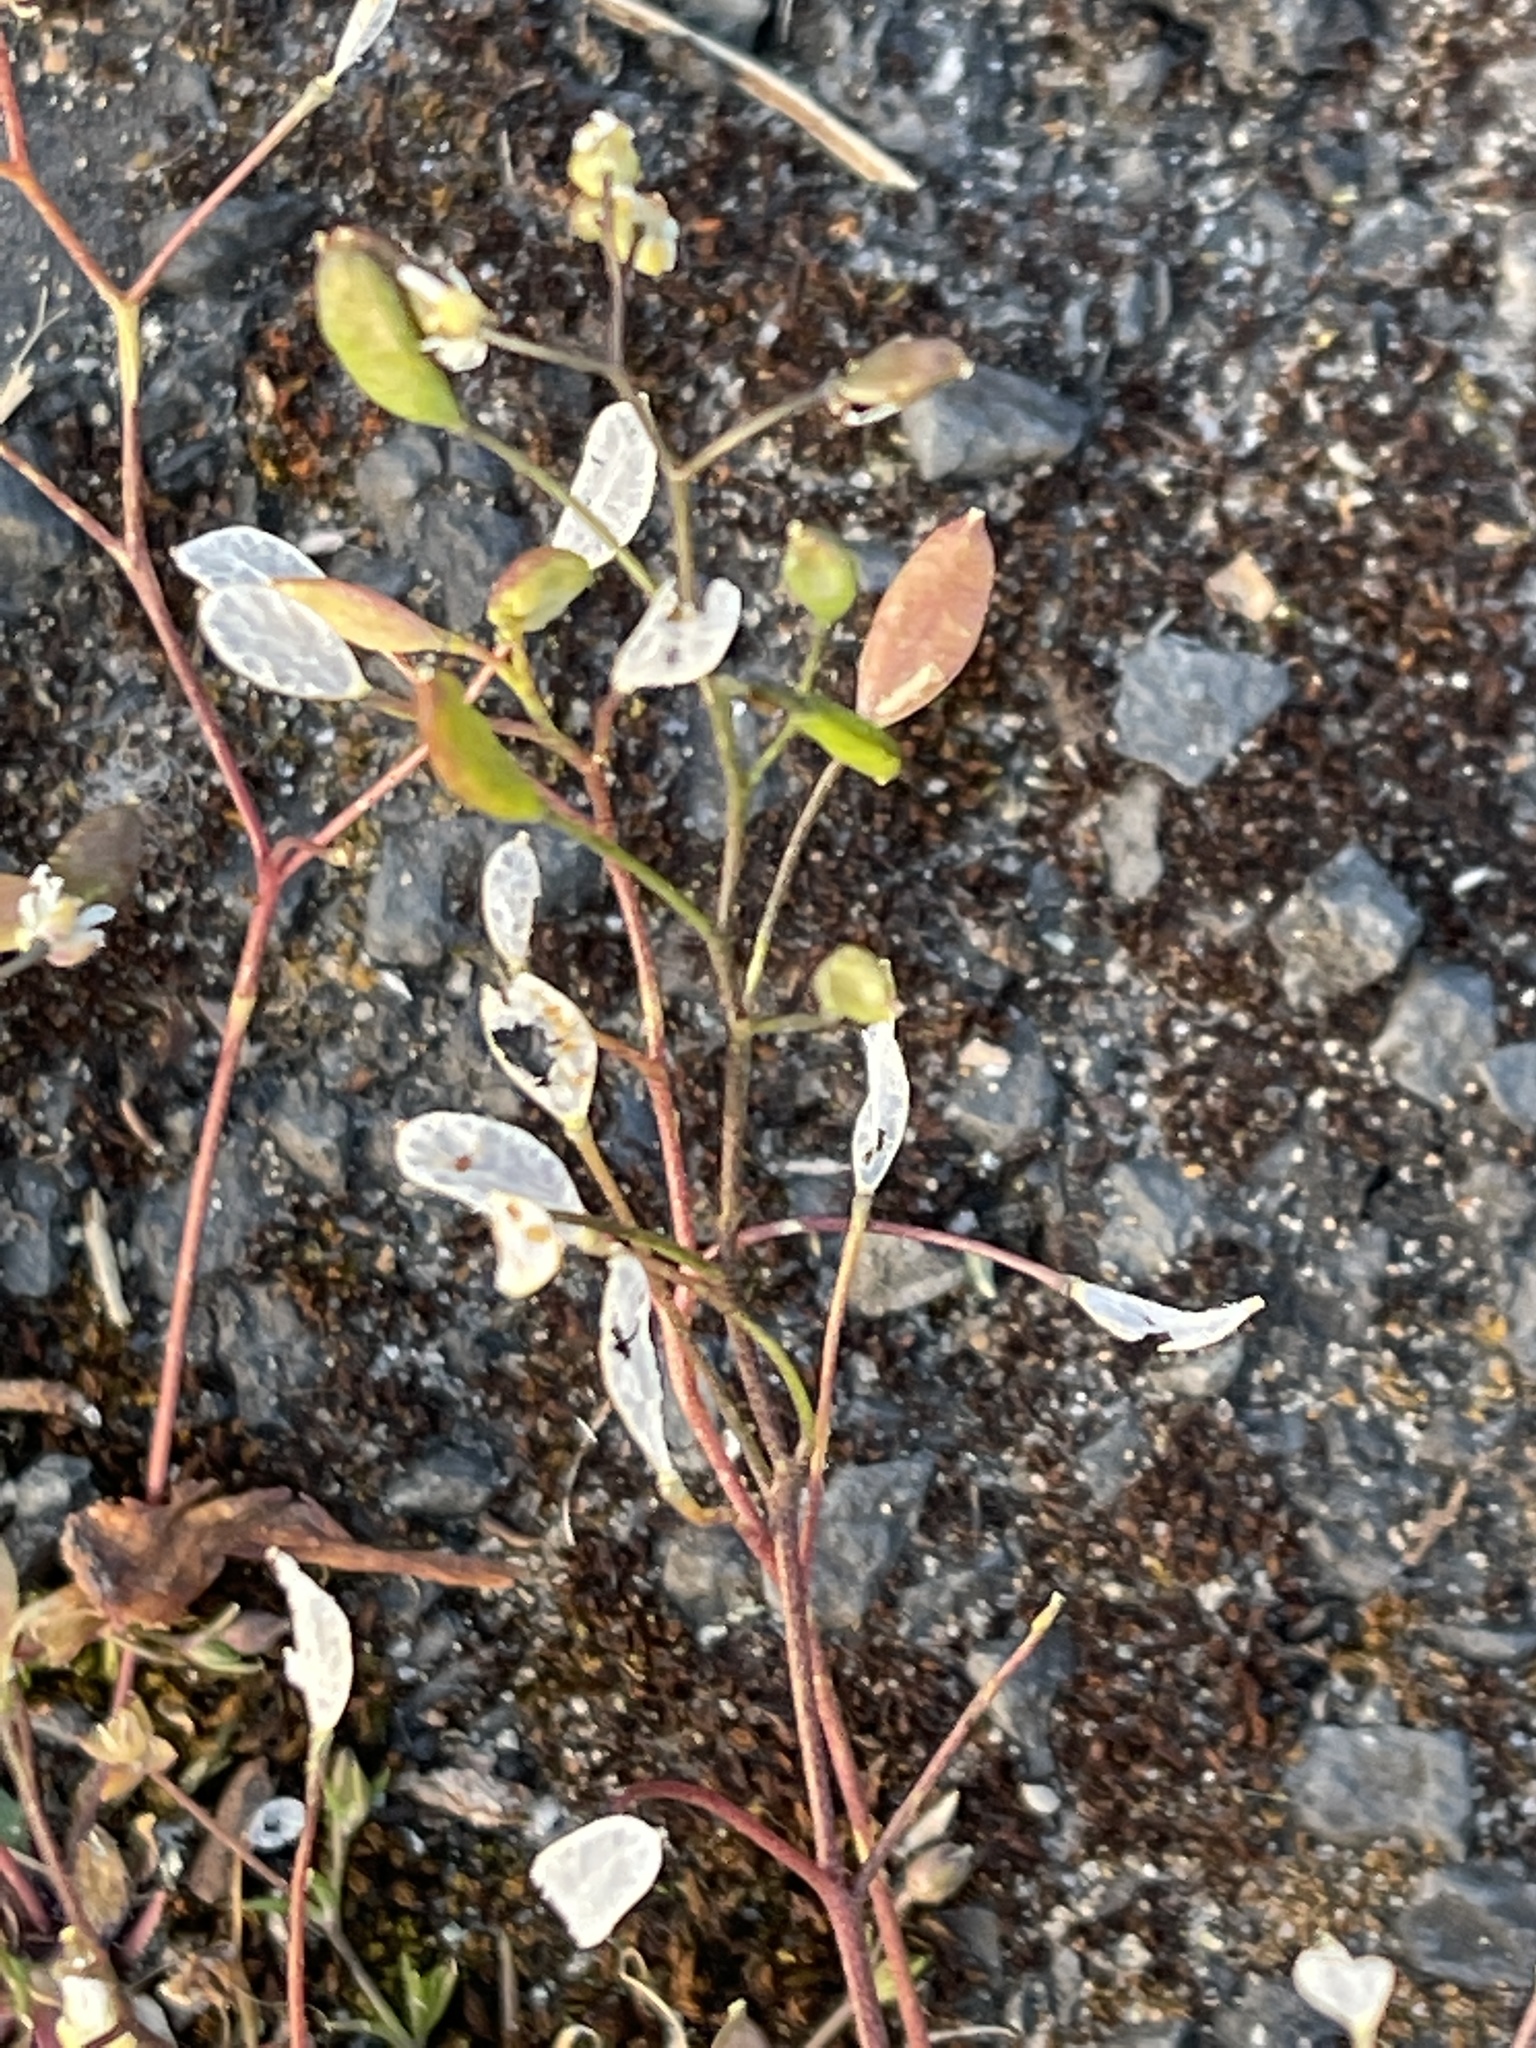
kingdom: Plantae
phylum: Tracheophyta
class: Magnoliopsida
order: Brassicales
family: Brassicaceae
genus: Draba
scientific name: Draba verna
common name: Spring draba
